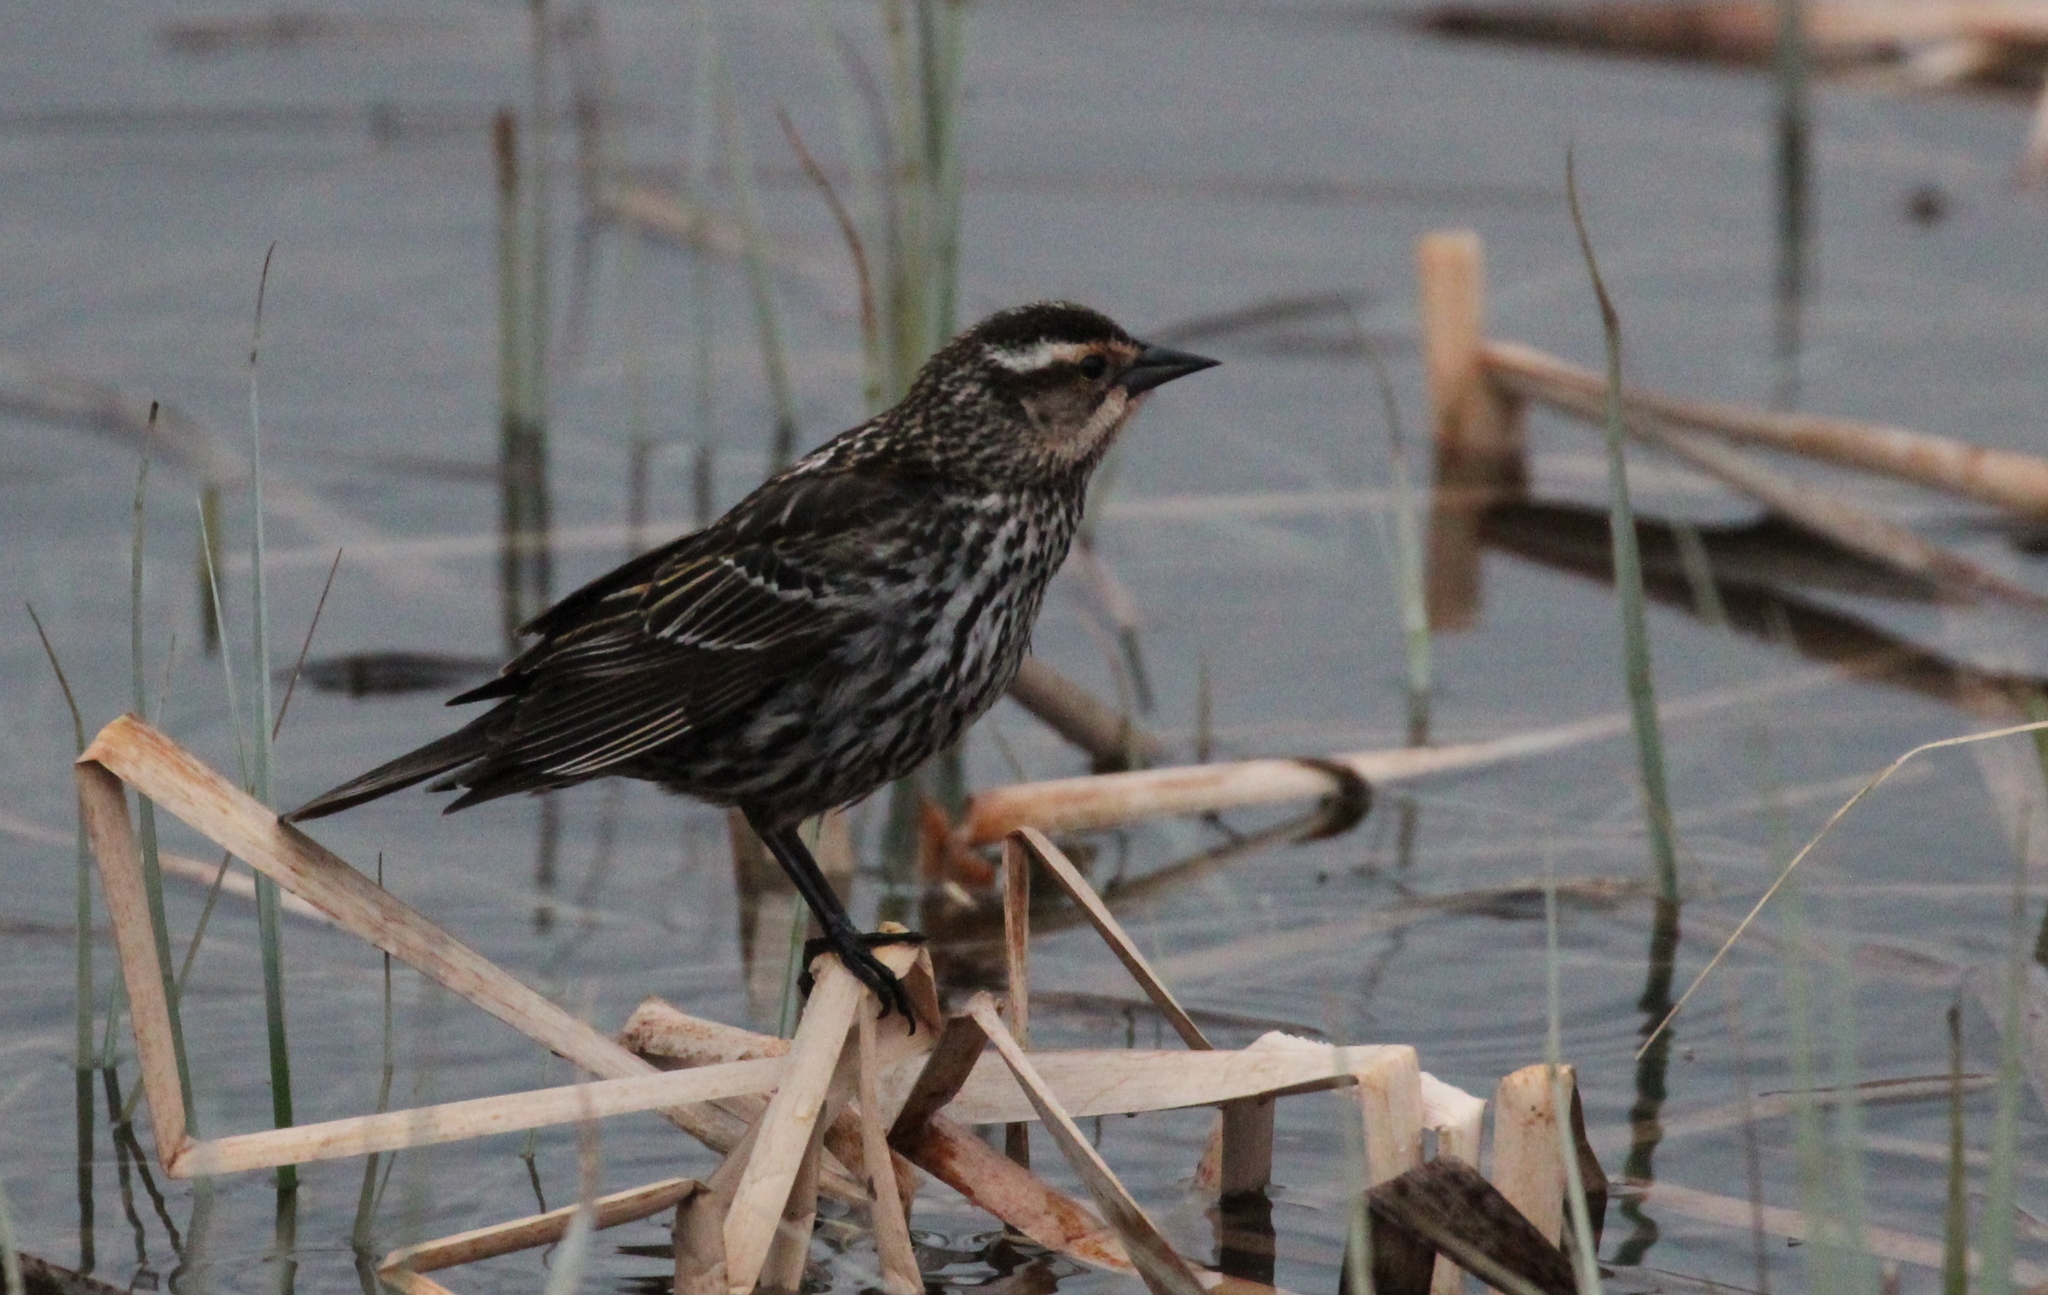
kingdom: Animalia
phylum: Chordata
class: Aves
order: Passeriformes
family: Icteridae
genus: Agelaius
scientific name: Agelaius phoeniceus
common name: Red-winged blackbird
